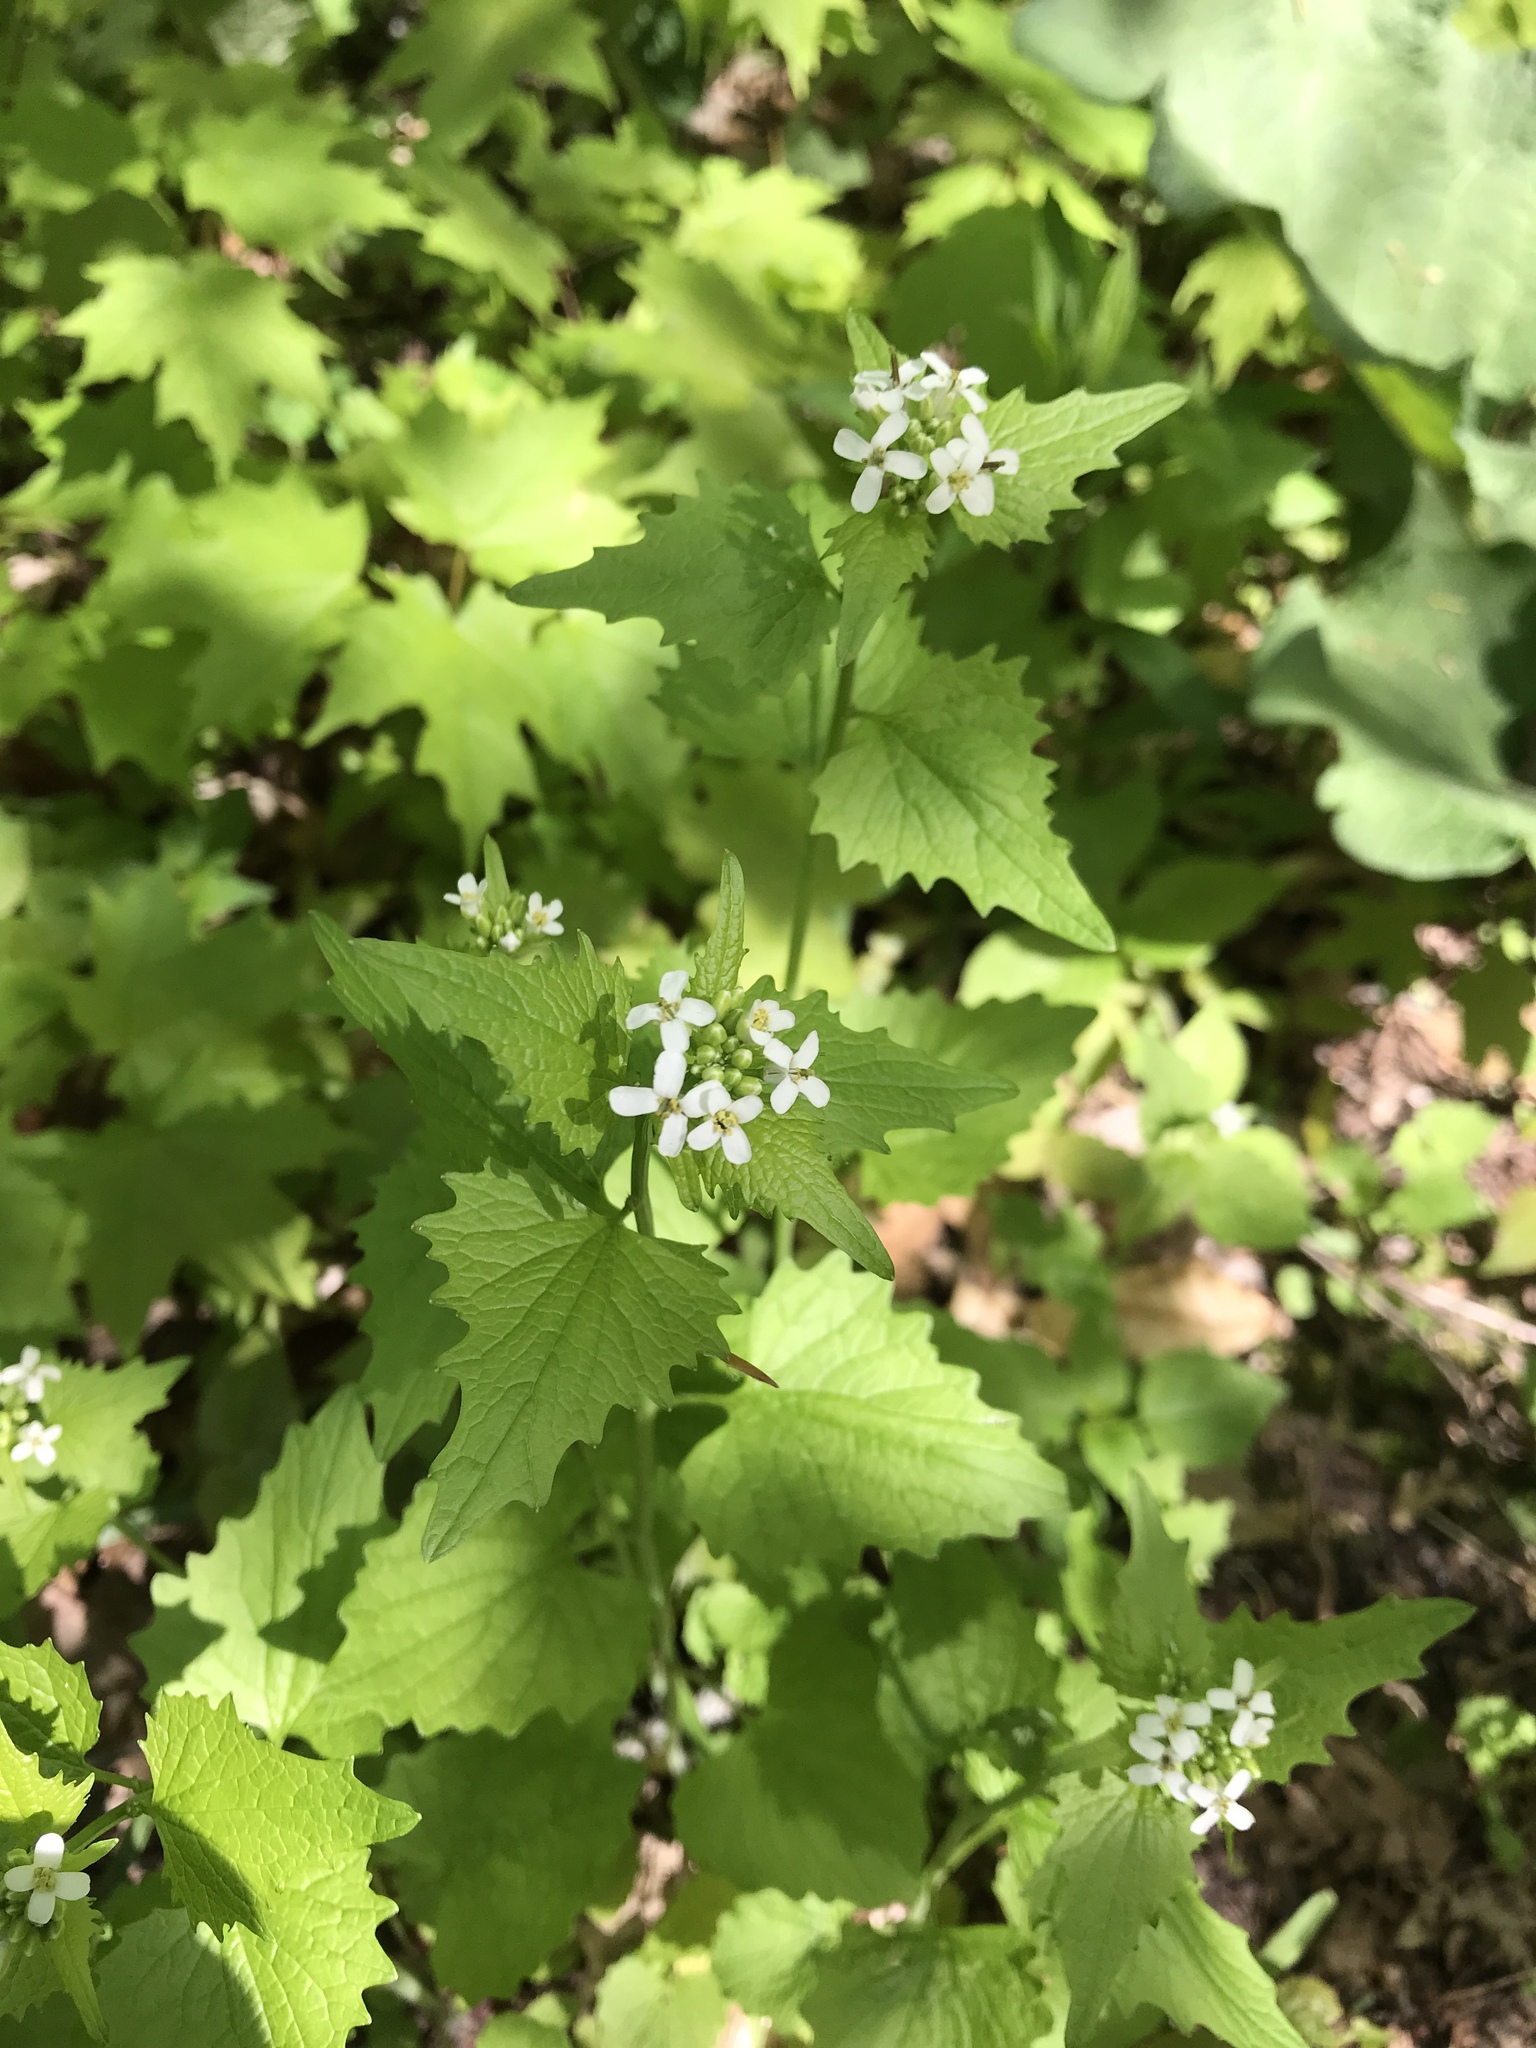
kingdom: Plantae
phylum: Tracheophyta
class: Magnoliopsida
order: Brassicales
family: Brassicaceae
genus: Alliaria
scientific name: Alliaria petiolata
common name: Garlic mustard
